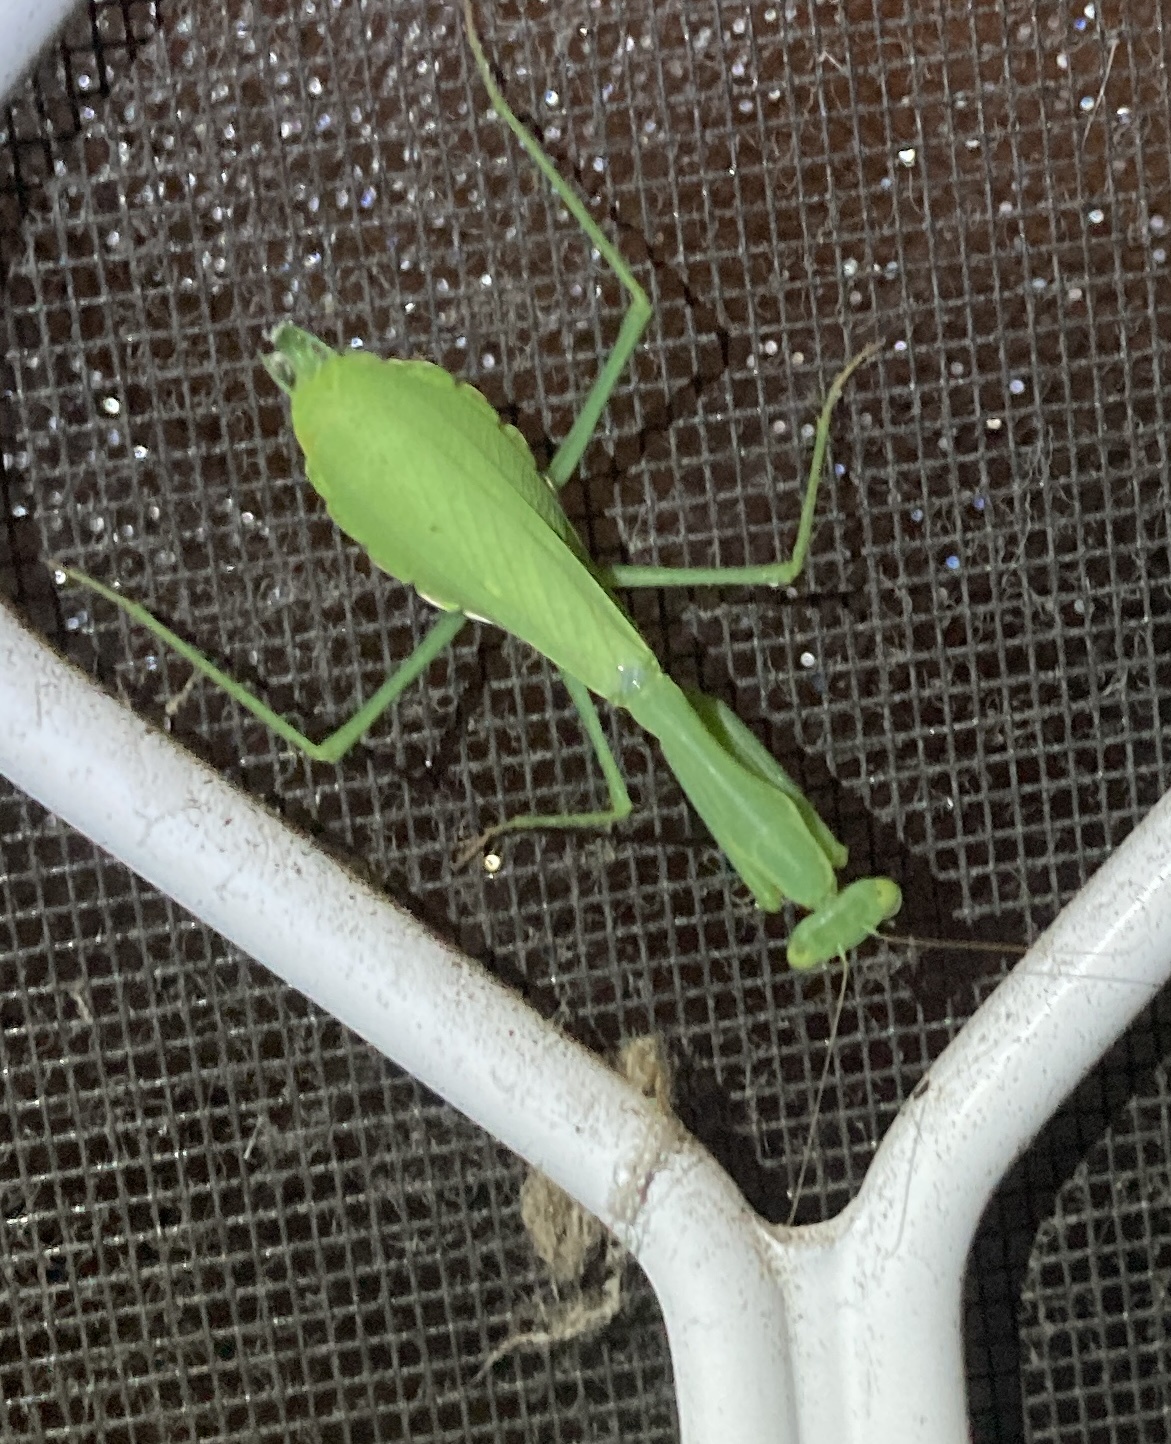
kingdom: Animalia
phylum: Arthropoda
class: Insecta
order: Mantodea
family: Miomantidae
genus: Miomantis
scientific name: Miomantis caffra
